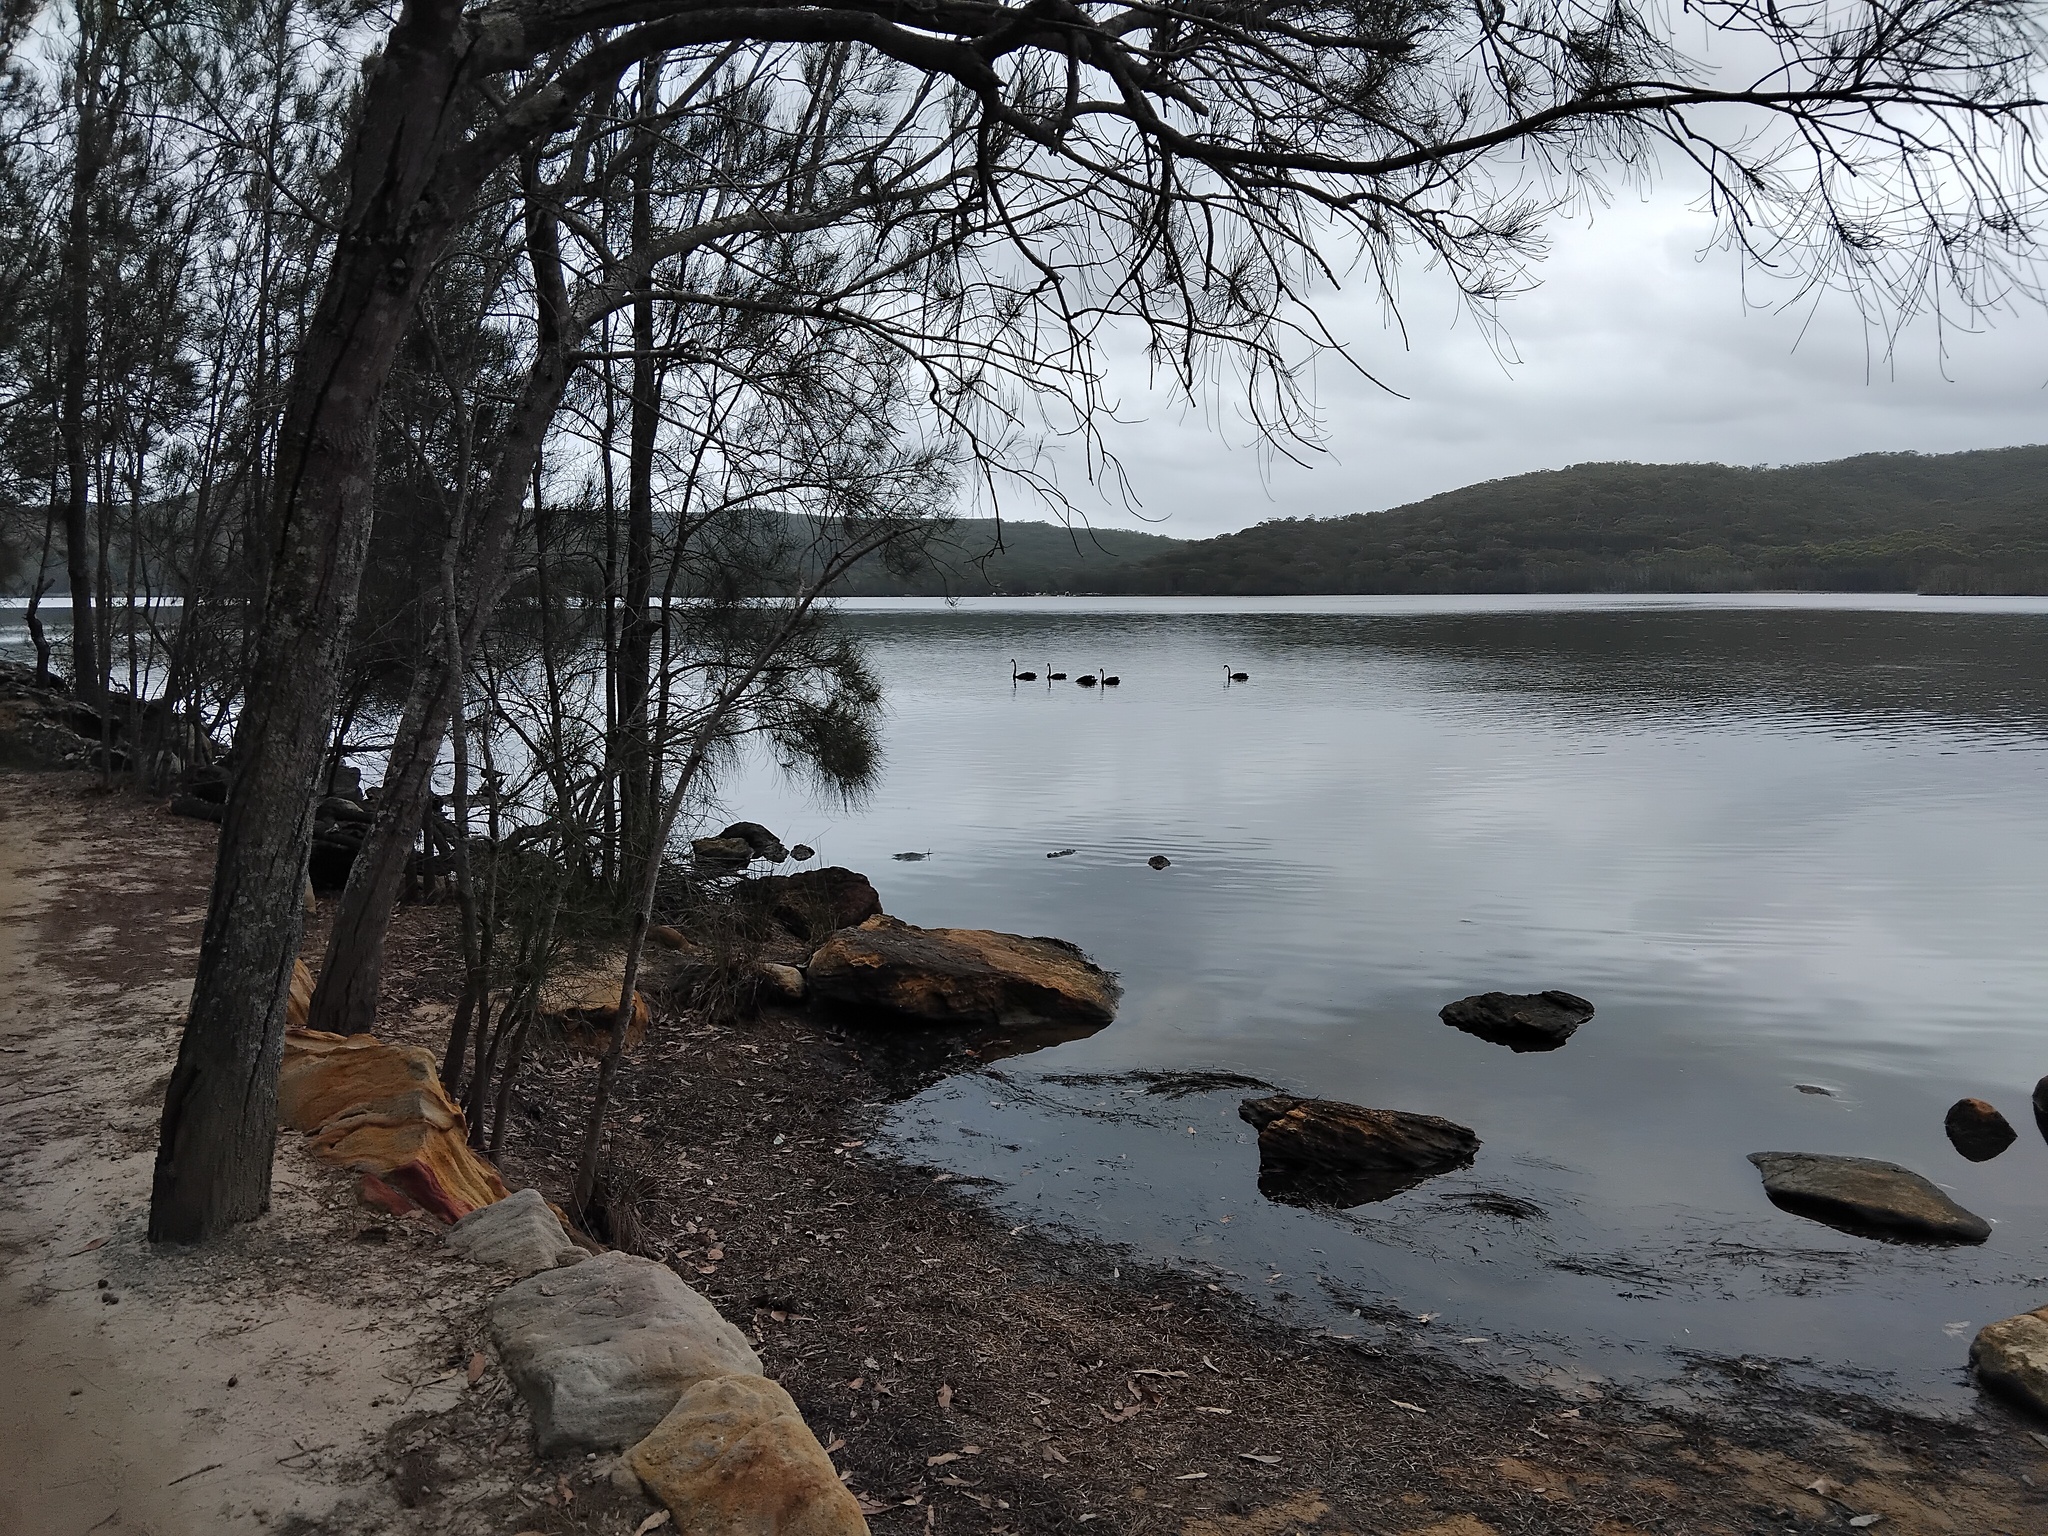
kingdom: Animalia
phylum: Chordata
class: Aves
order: Anseriformes
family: Anatidae
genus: Cygnus
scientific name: Cygnus atratus
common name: Black swan
